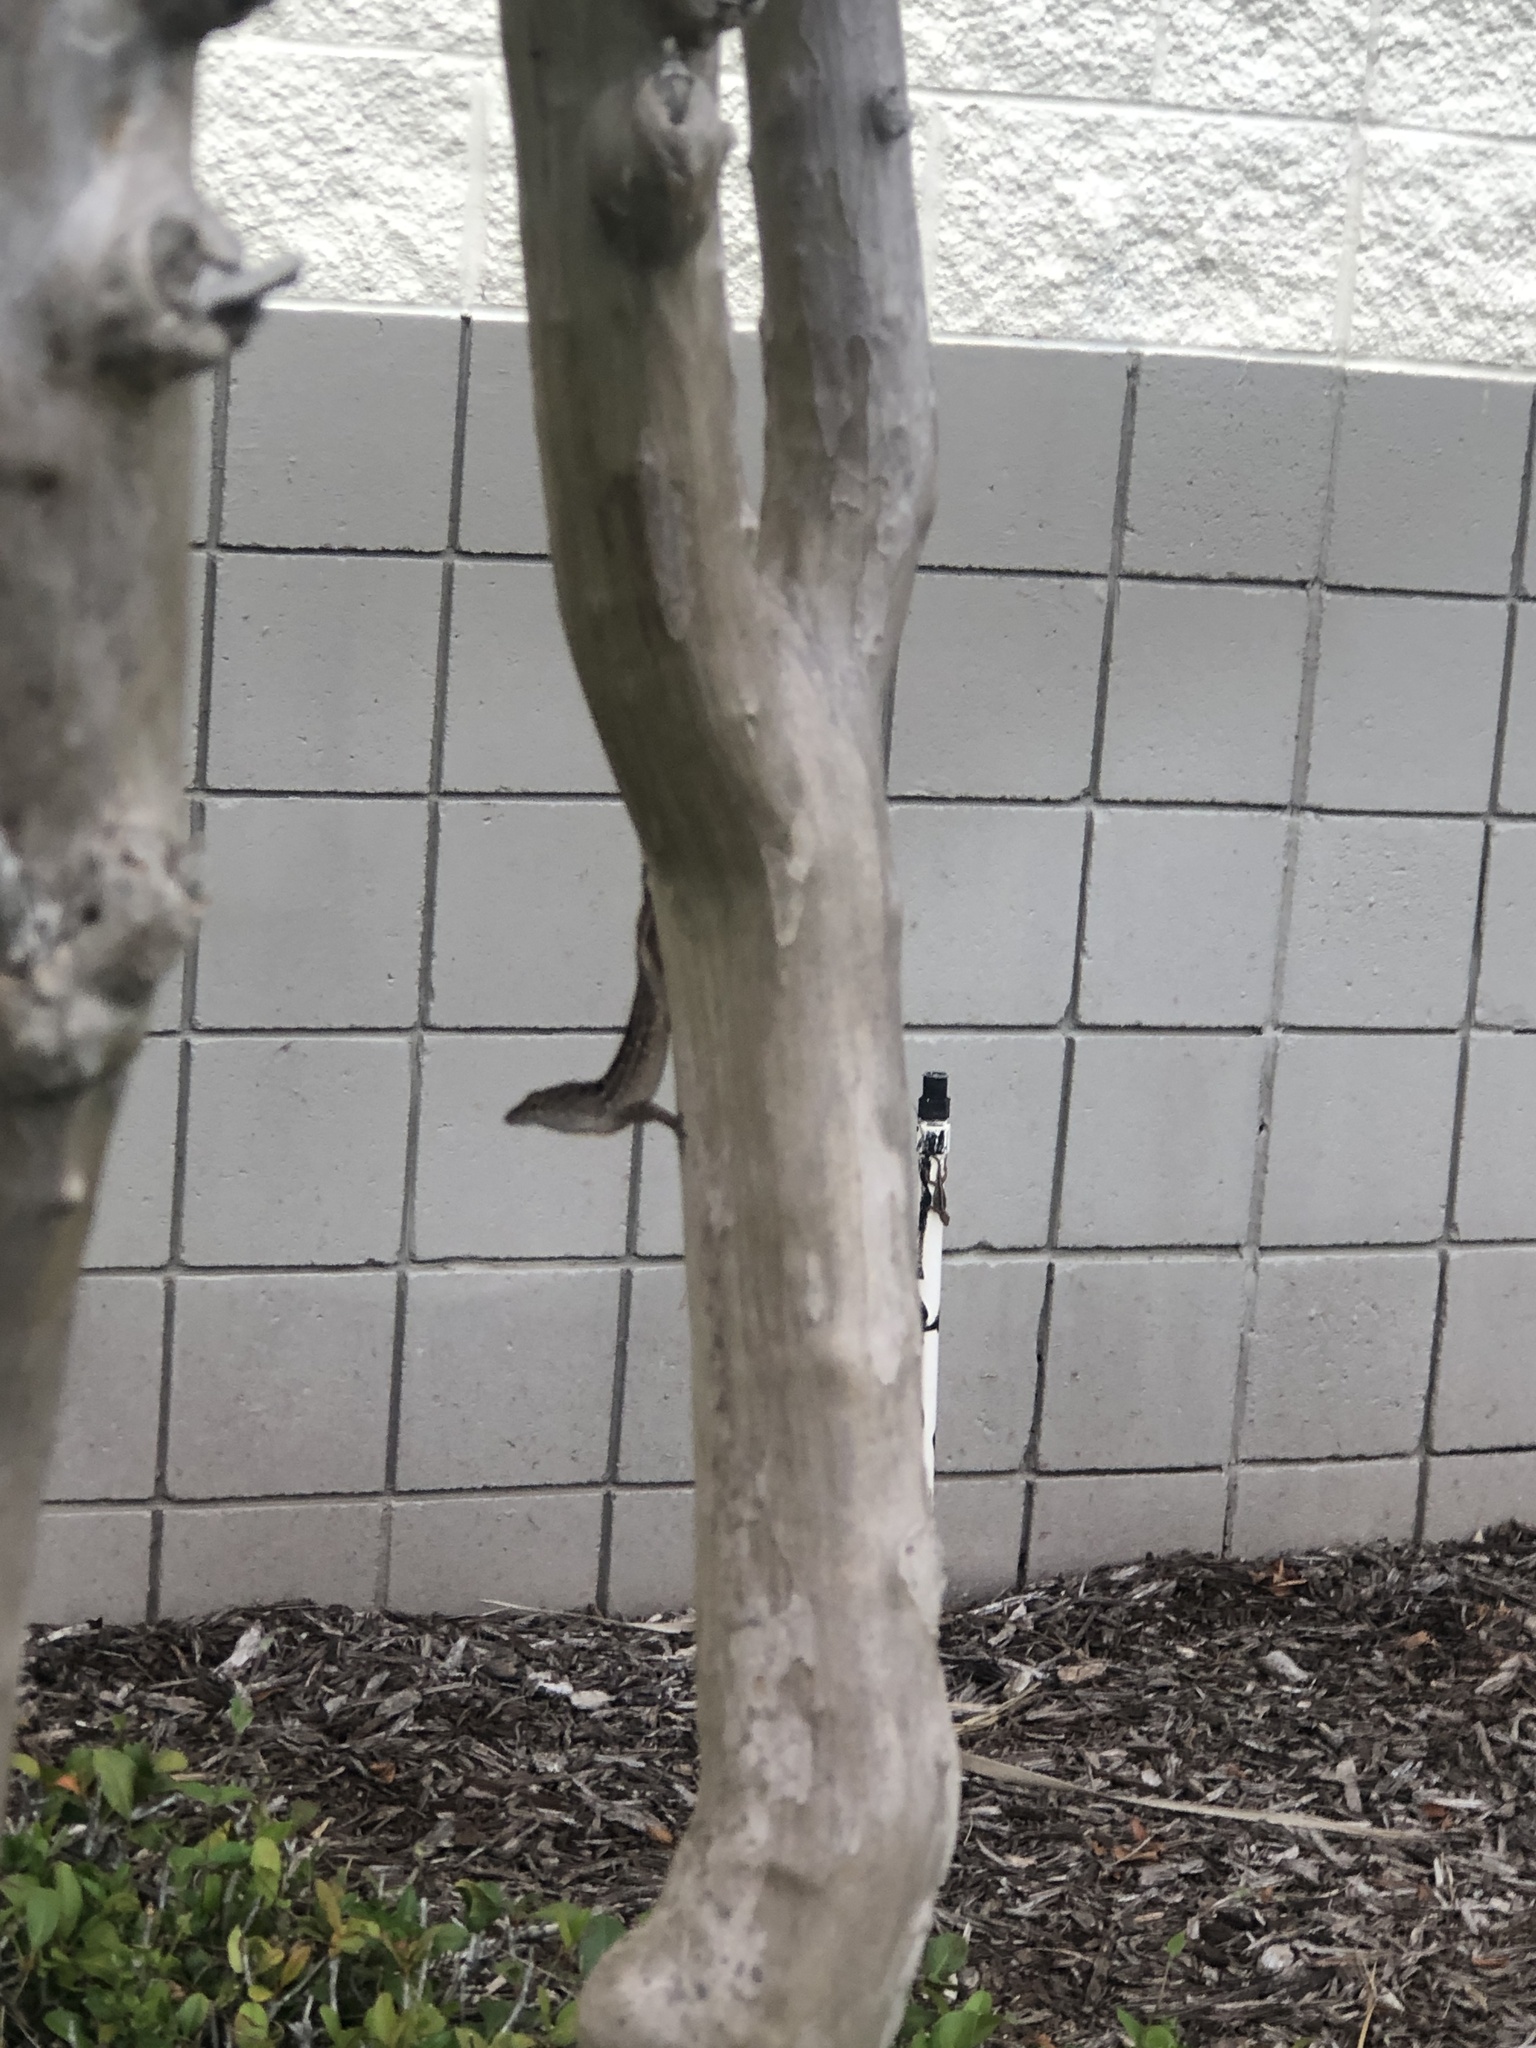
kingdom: Animalia
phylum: Chordata
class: Squamata
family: Dactyloidae
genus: Anolis
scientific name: Anolis sagrei
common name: Brown anole
